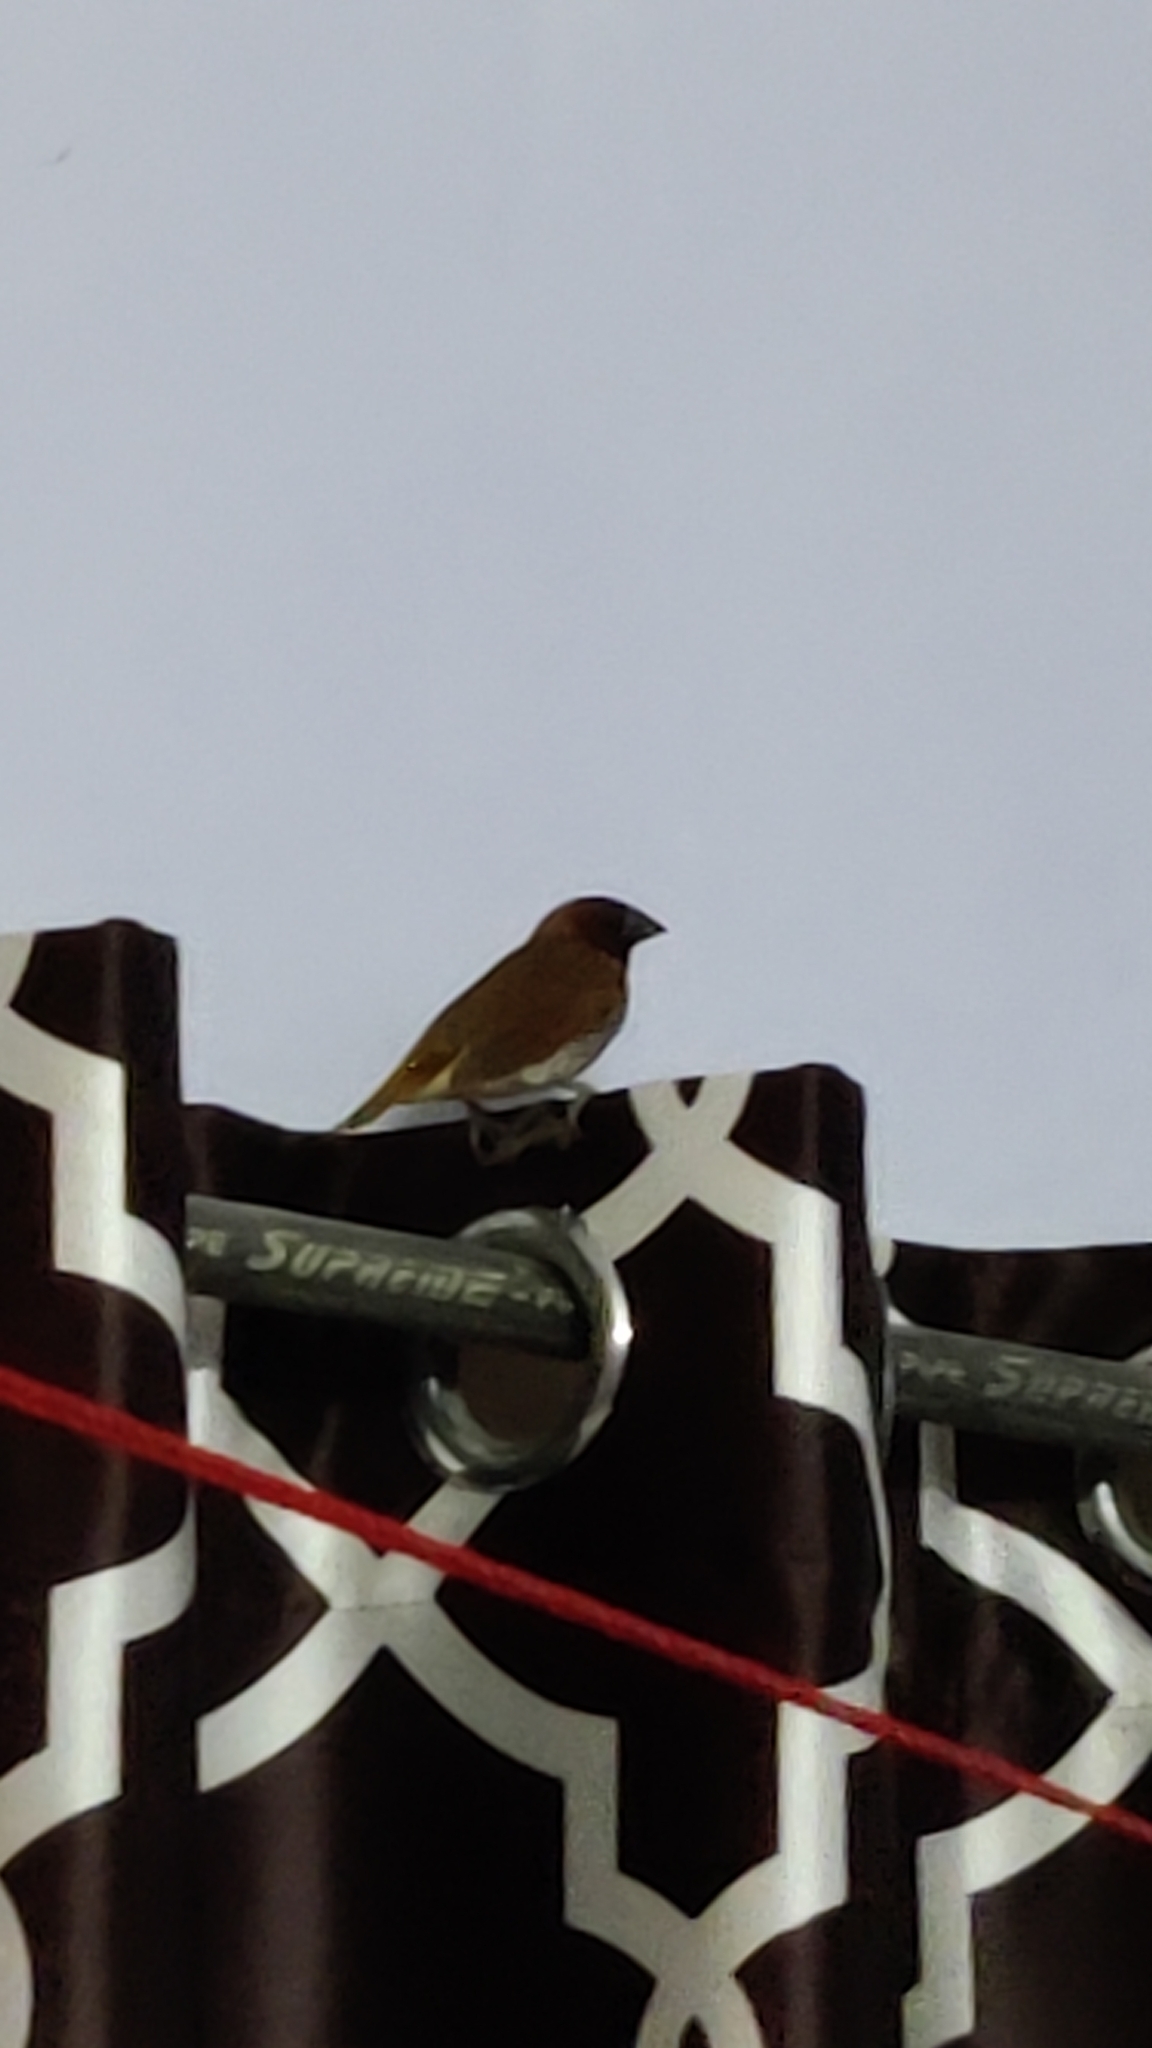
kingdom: Animalia
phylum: Chordata
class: Aves
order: Passeriformes
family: Estrildidae
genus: Lonchura
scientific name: Lonchura punctulata
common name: Scaly-breasted munia
